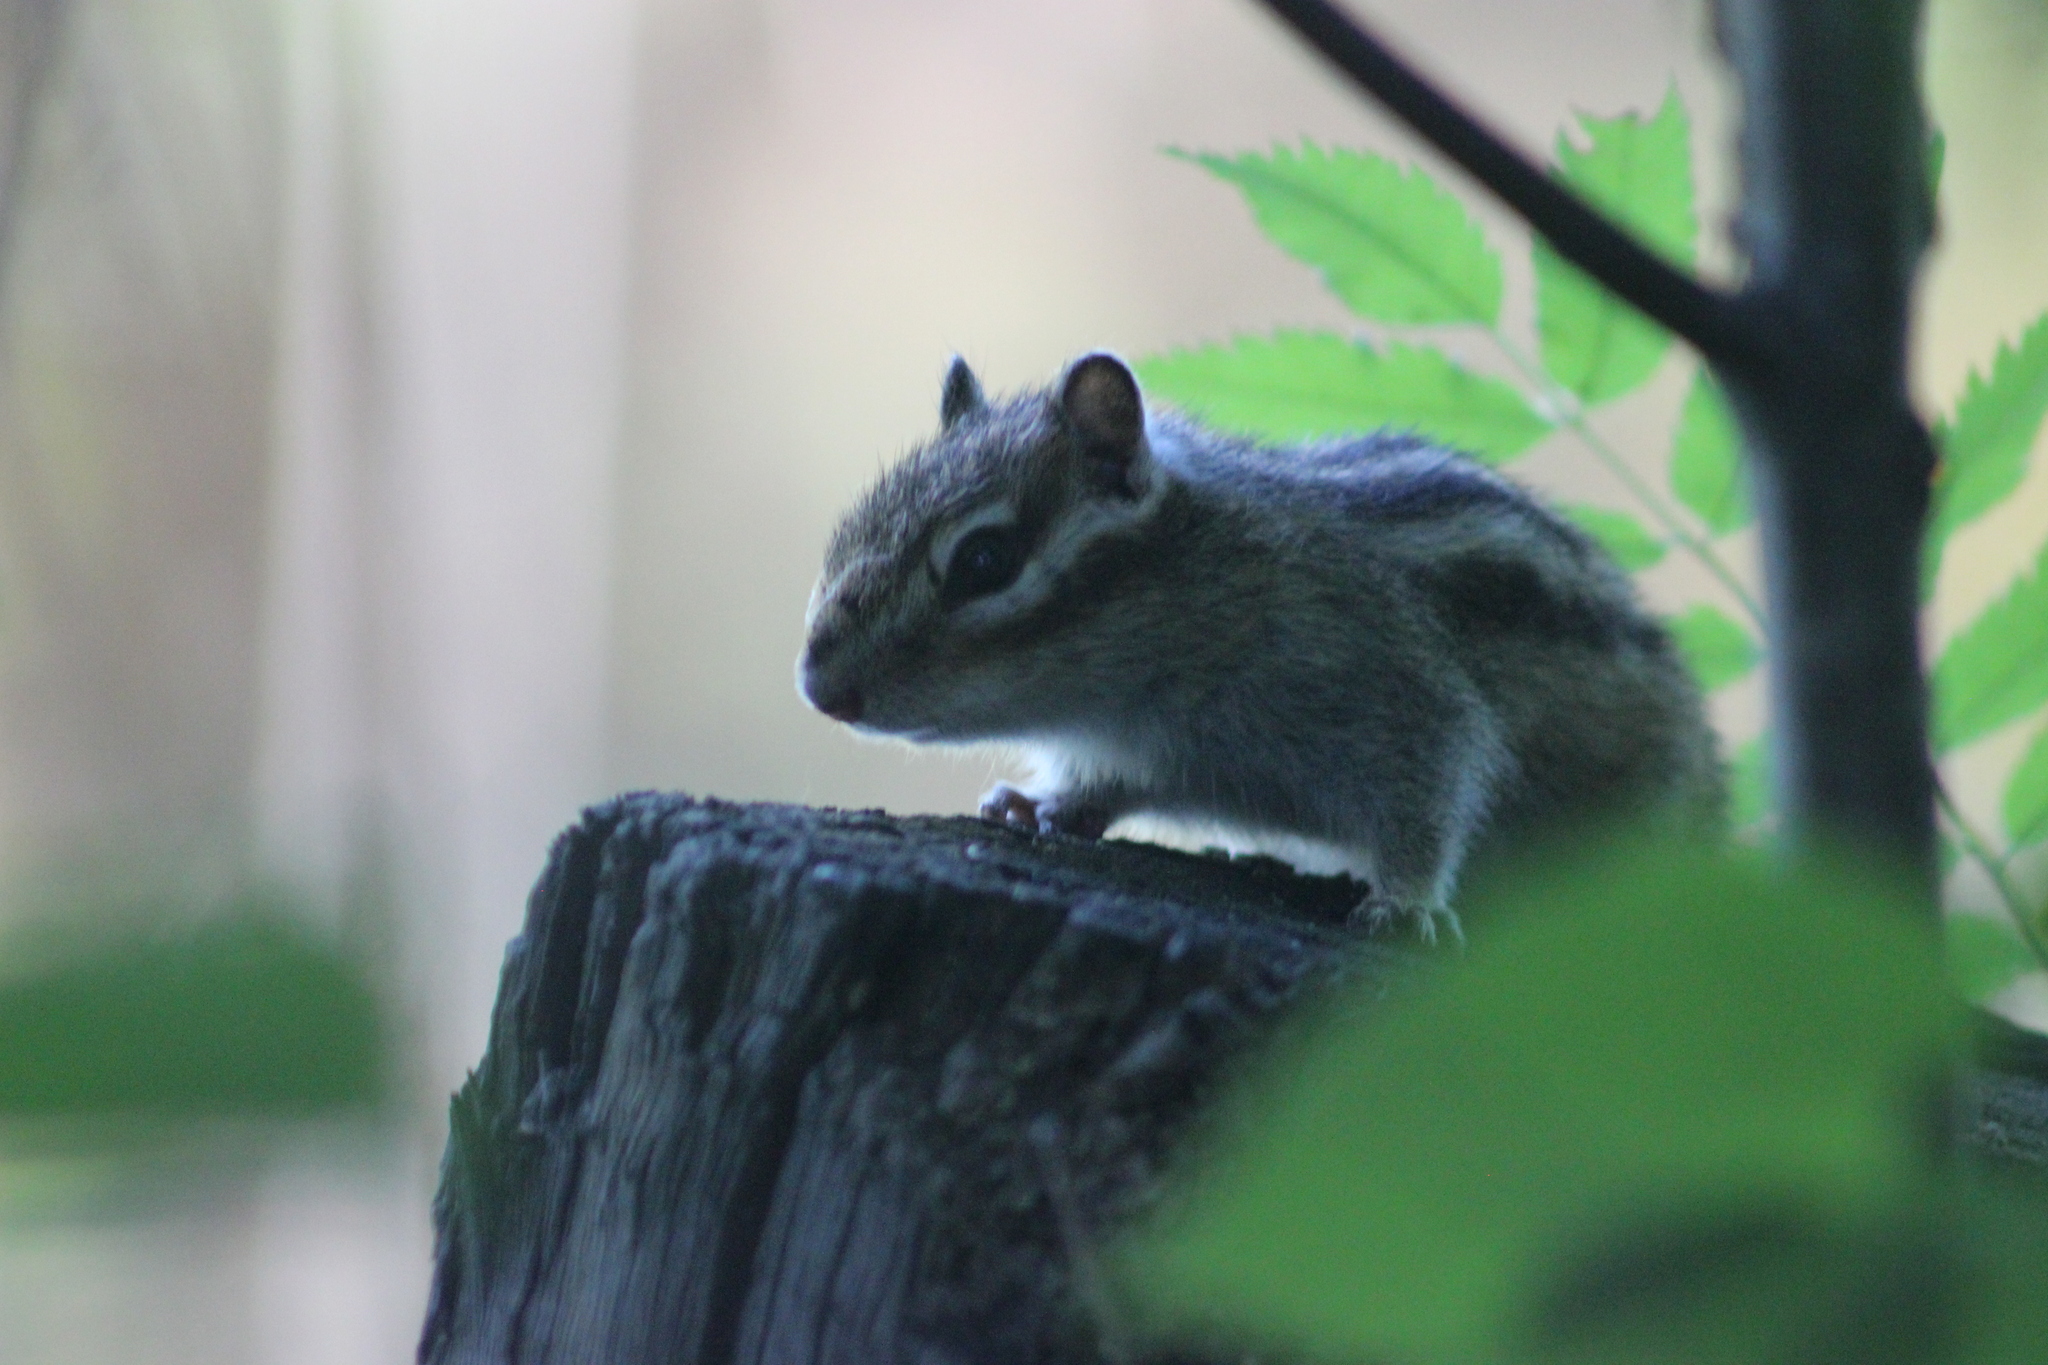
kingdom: Animalia
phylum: Chordata
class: Mammalia
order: Rodentia
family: Sciuridae
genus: Tamias
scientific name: Tamias sibiricus
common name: Siberian chipmunk
